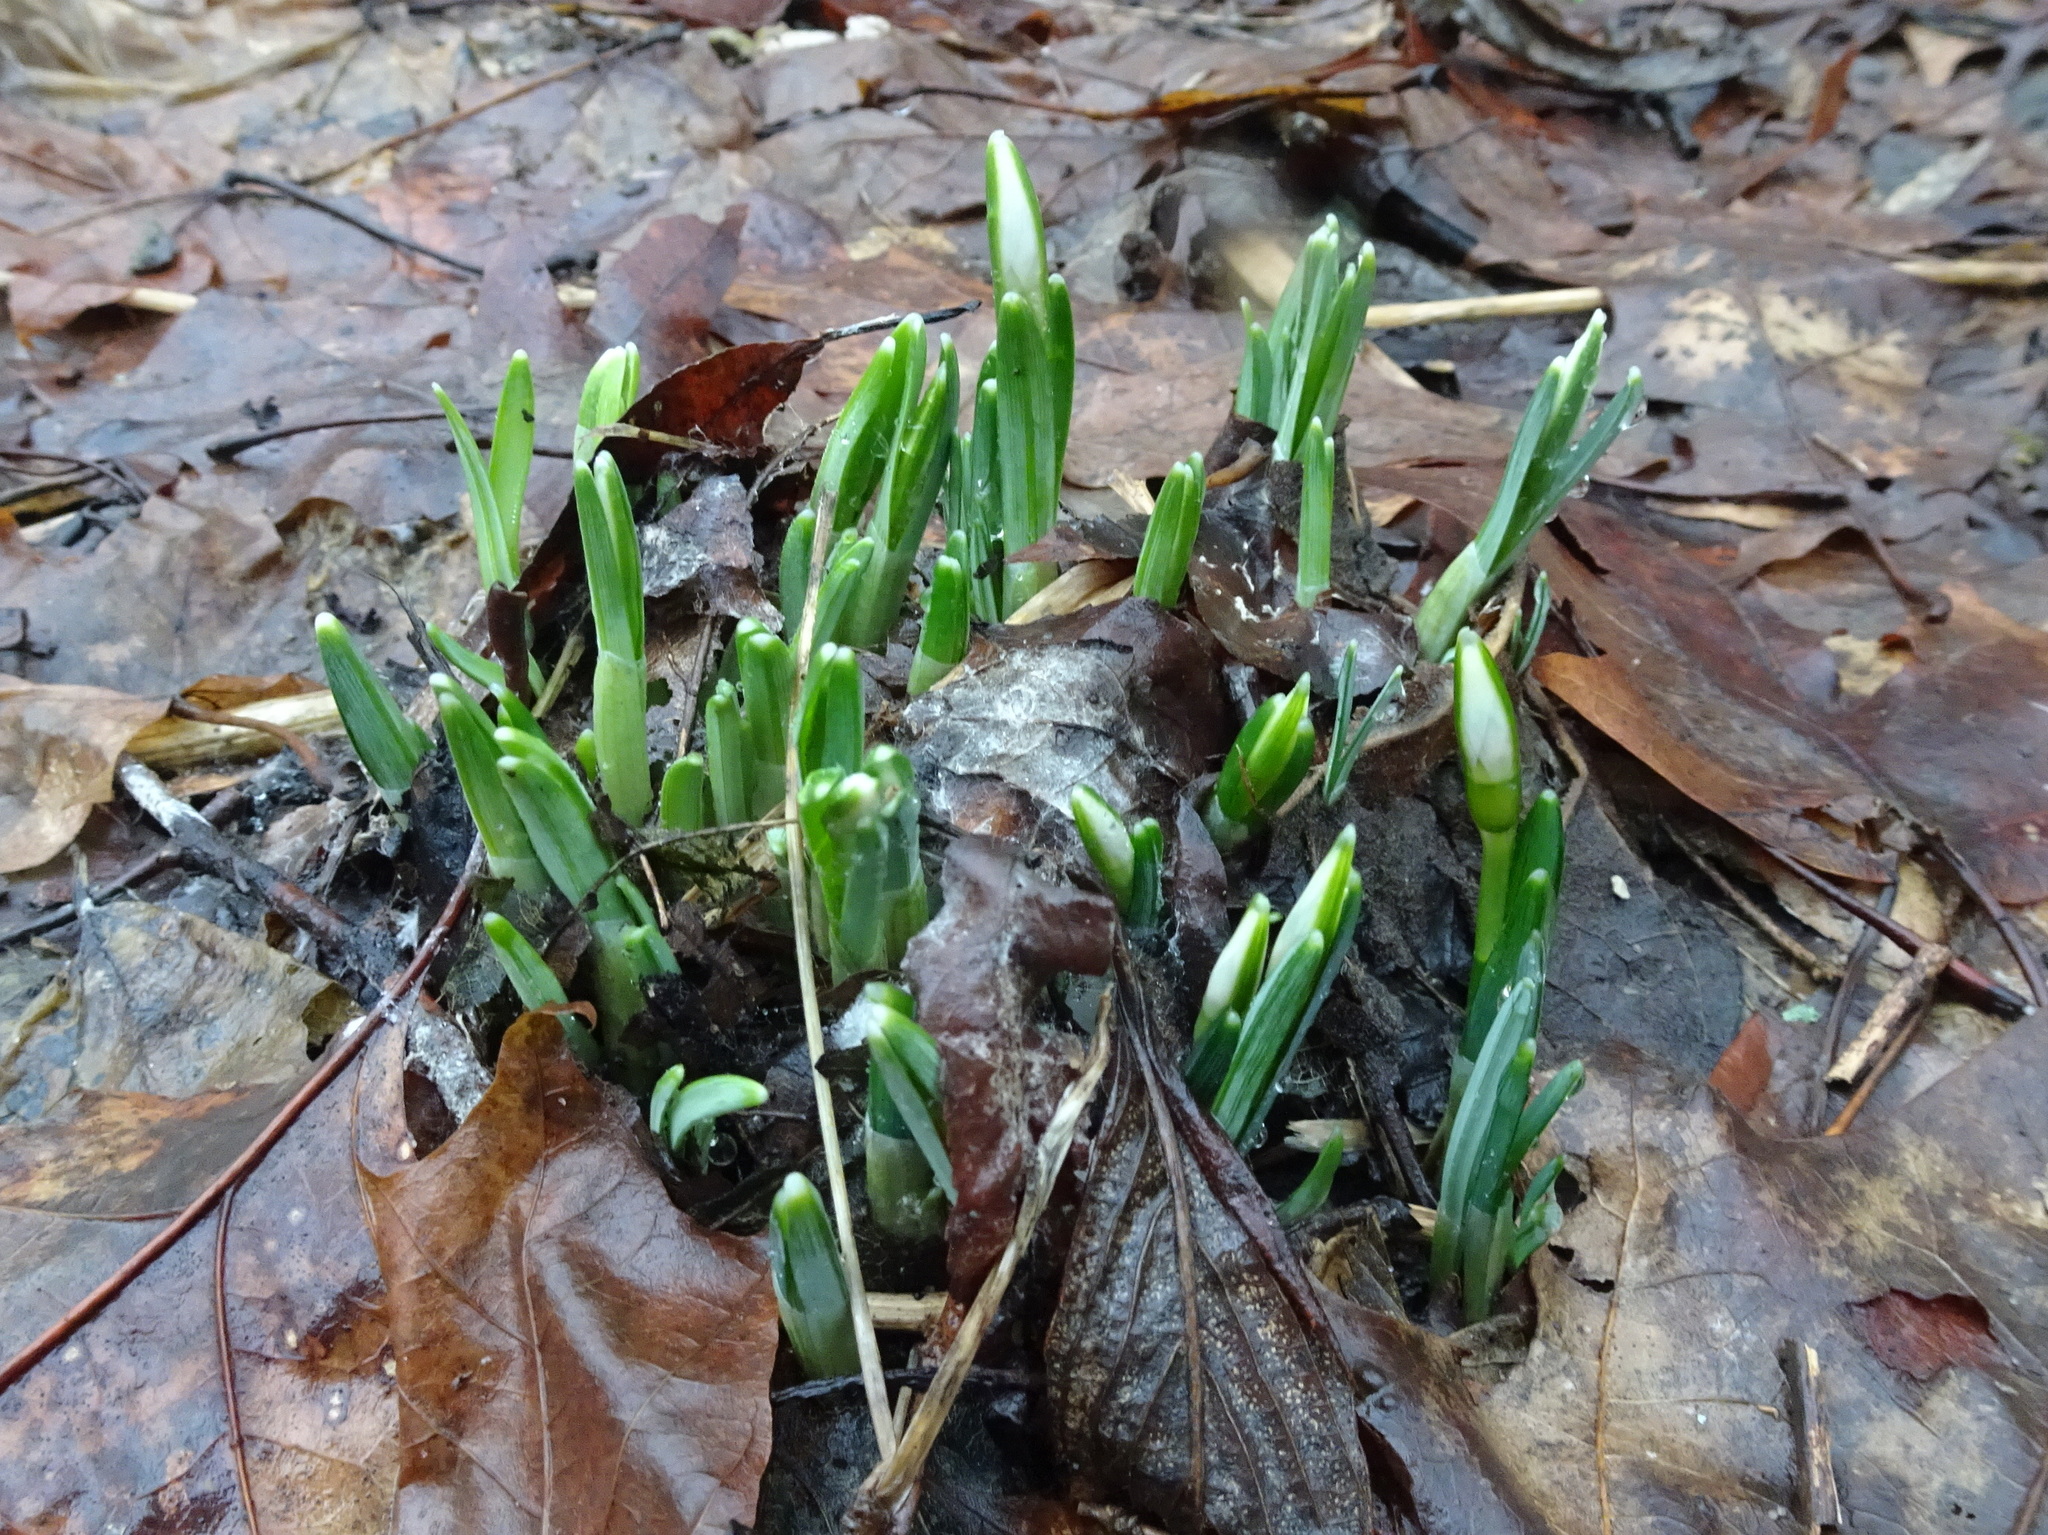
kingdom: Plantae
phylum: Tracheophyta
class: Liliopsida
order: Asparagales
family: Amaryllidaceae
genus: Galanthus
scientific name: Galanthus nivalis
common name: Snowdrop
